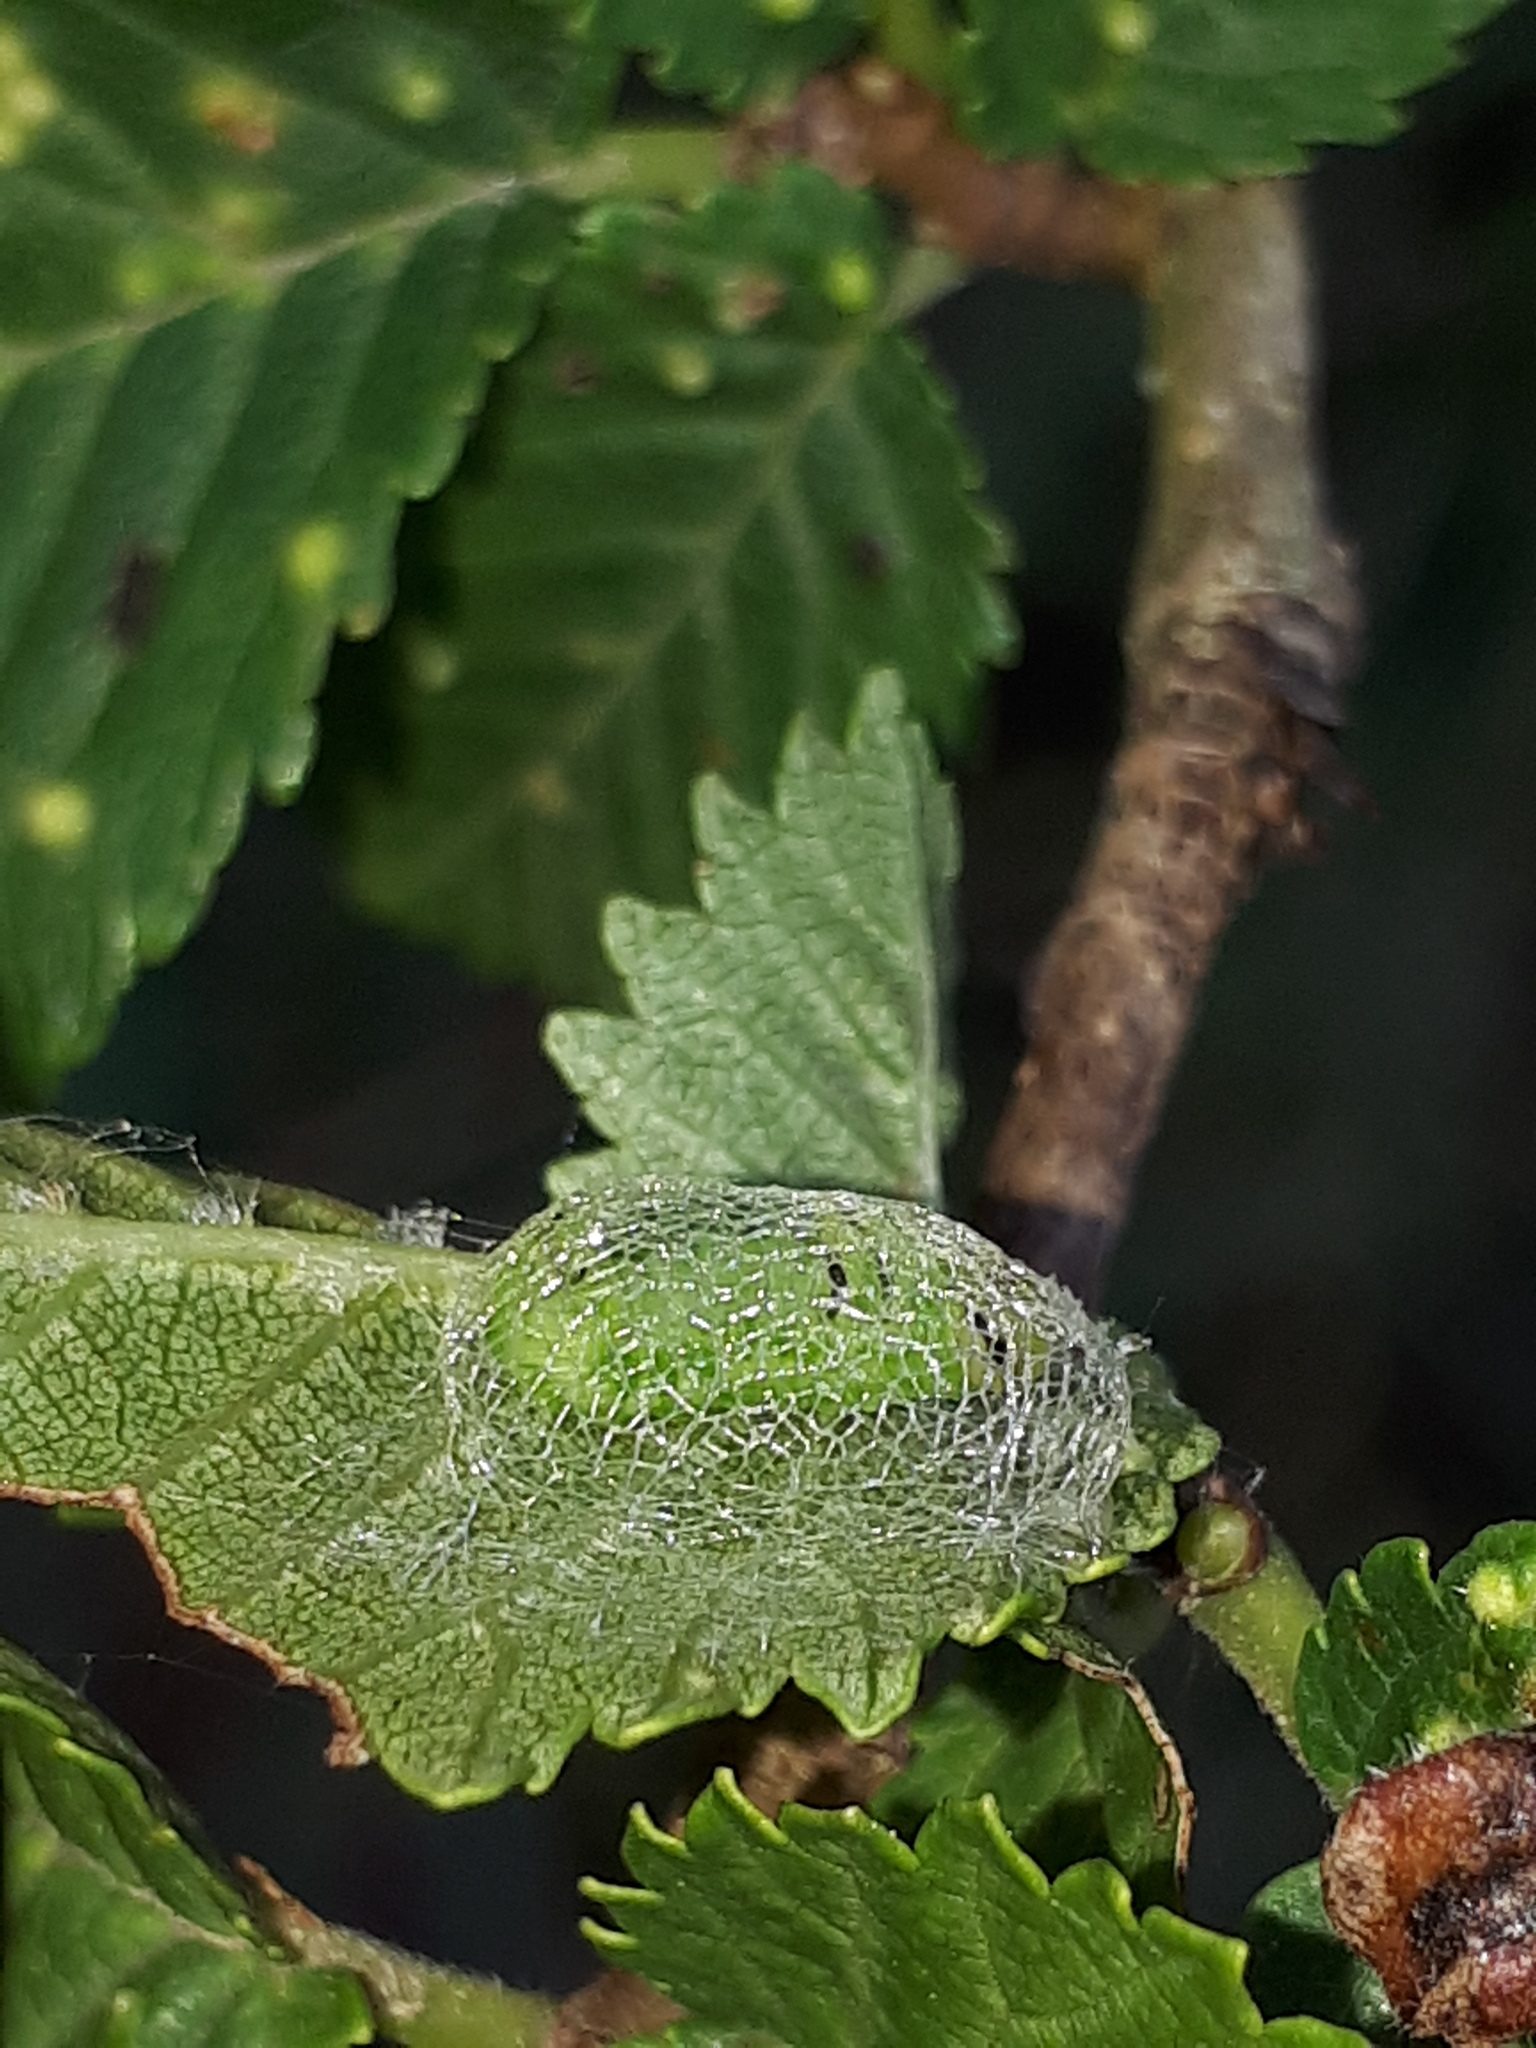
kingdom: Animalia
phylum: Arthropoda
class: Insecta
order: Hymenoptera
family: Argidae
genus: Aproceros
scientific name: Aproceros leucopoda
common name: Zig-zag elm sawfly
